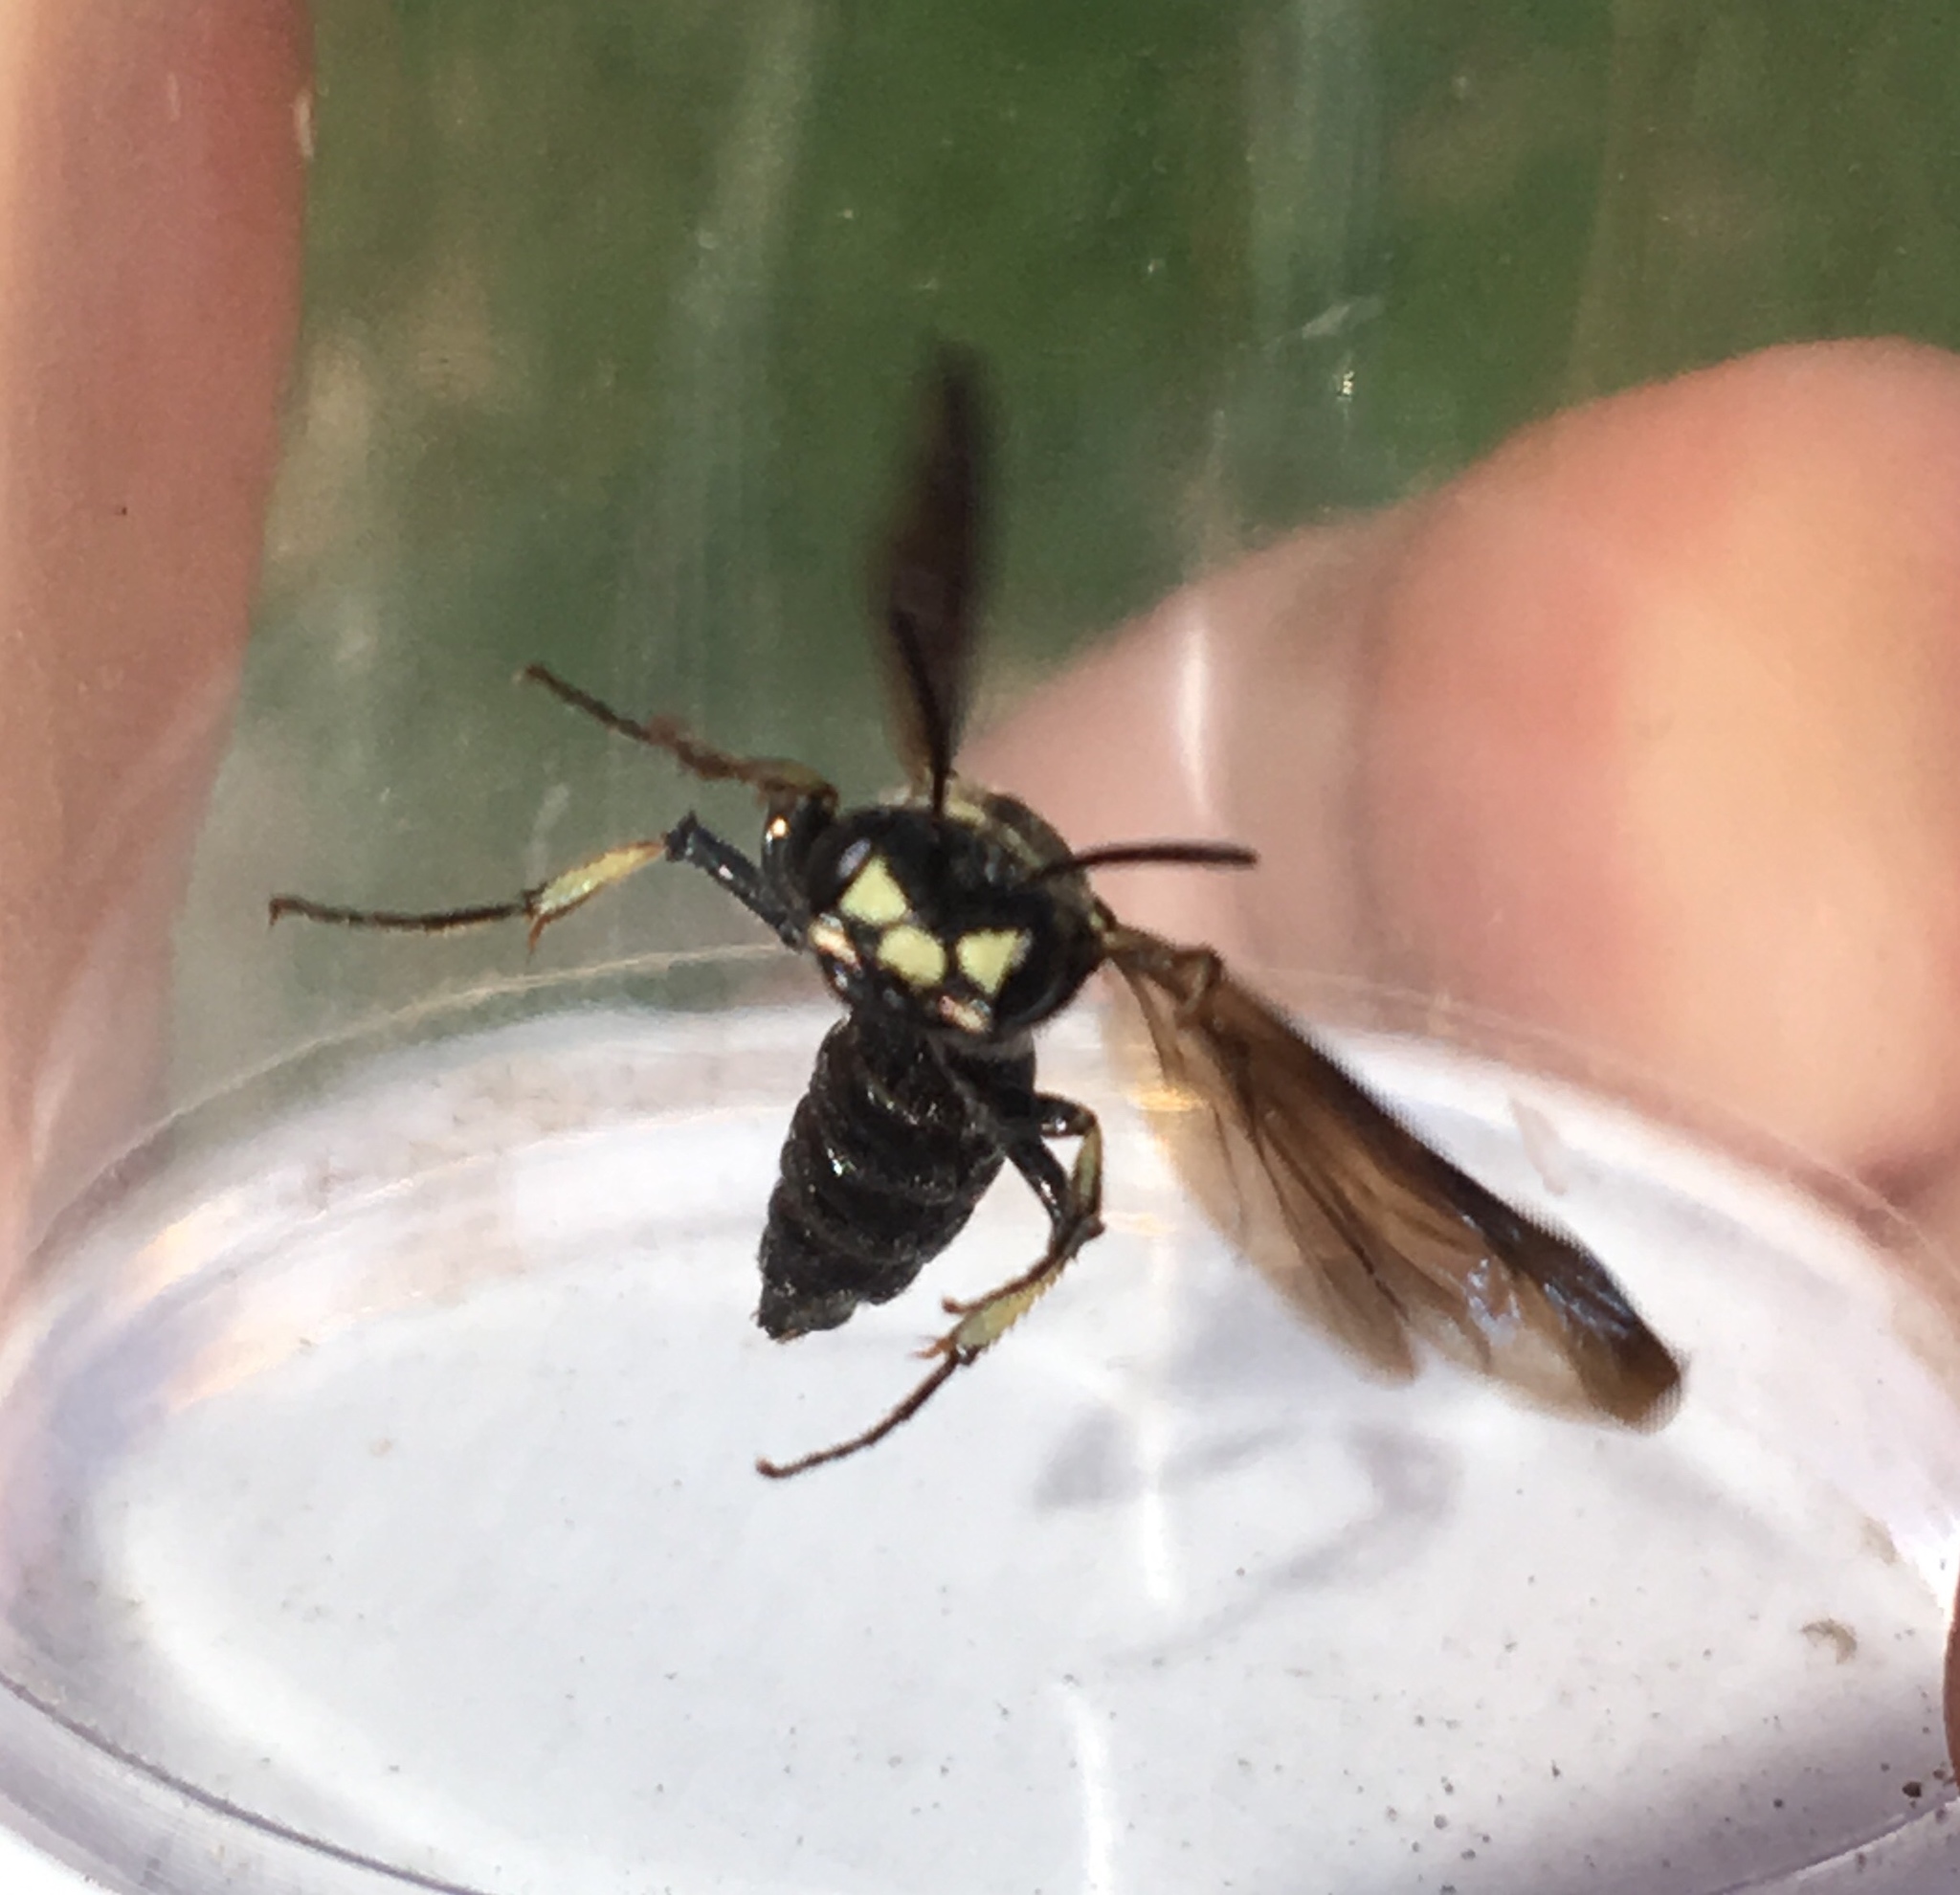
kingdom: Animalia
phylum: Arthropoda
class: Insecta
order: Hymenoptera
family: Crabronidae
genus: Cerceris
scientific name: Cerceris fumipennis
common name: Smokey-winged beetle bandit wasp
